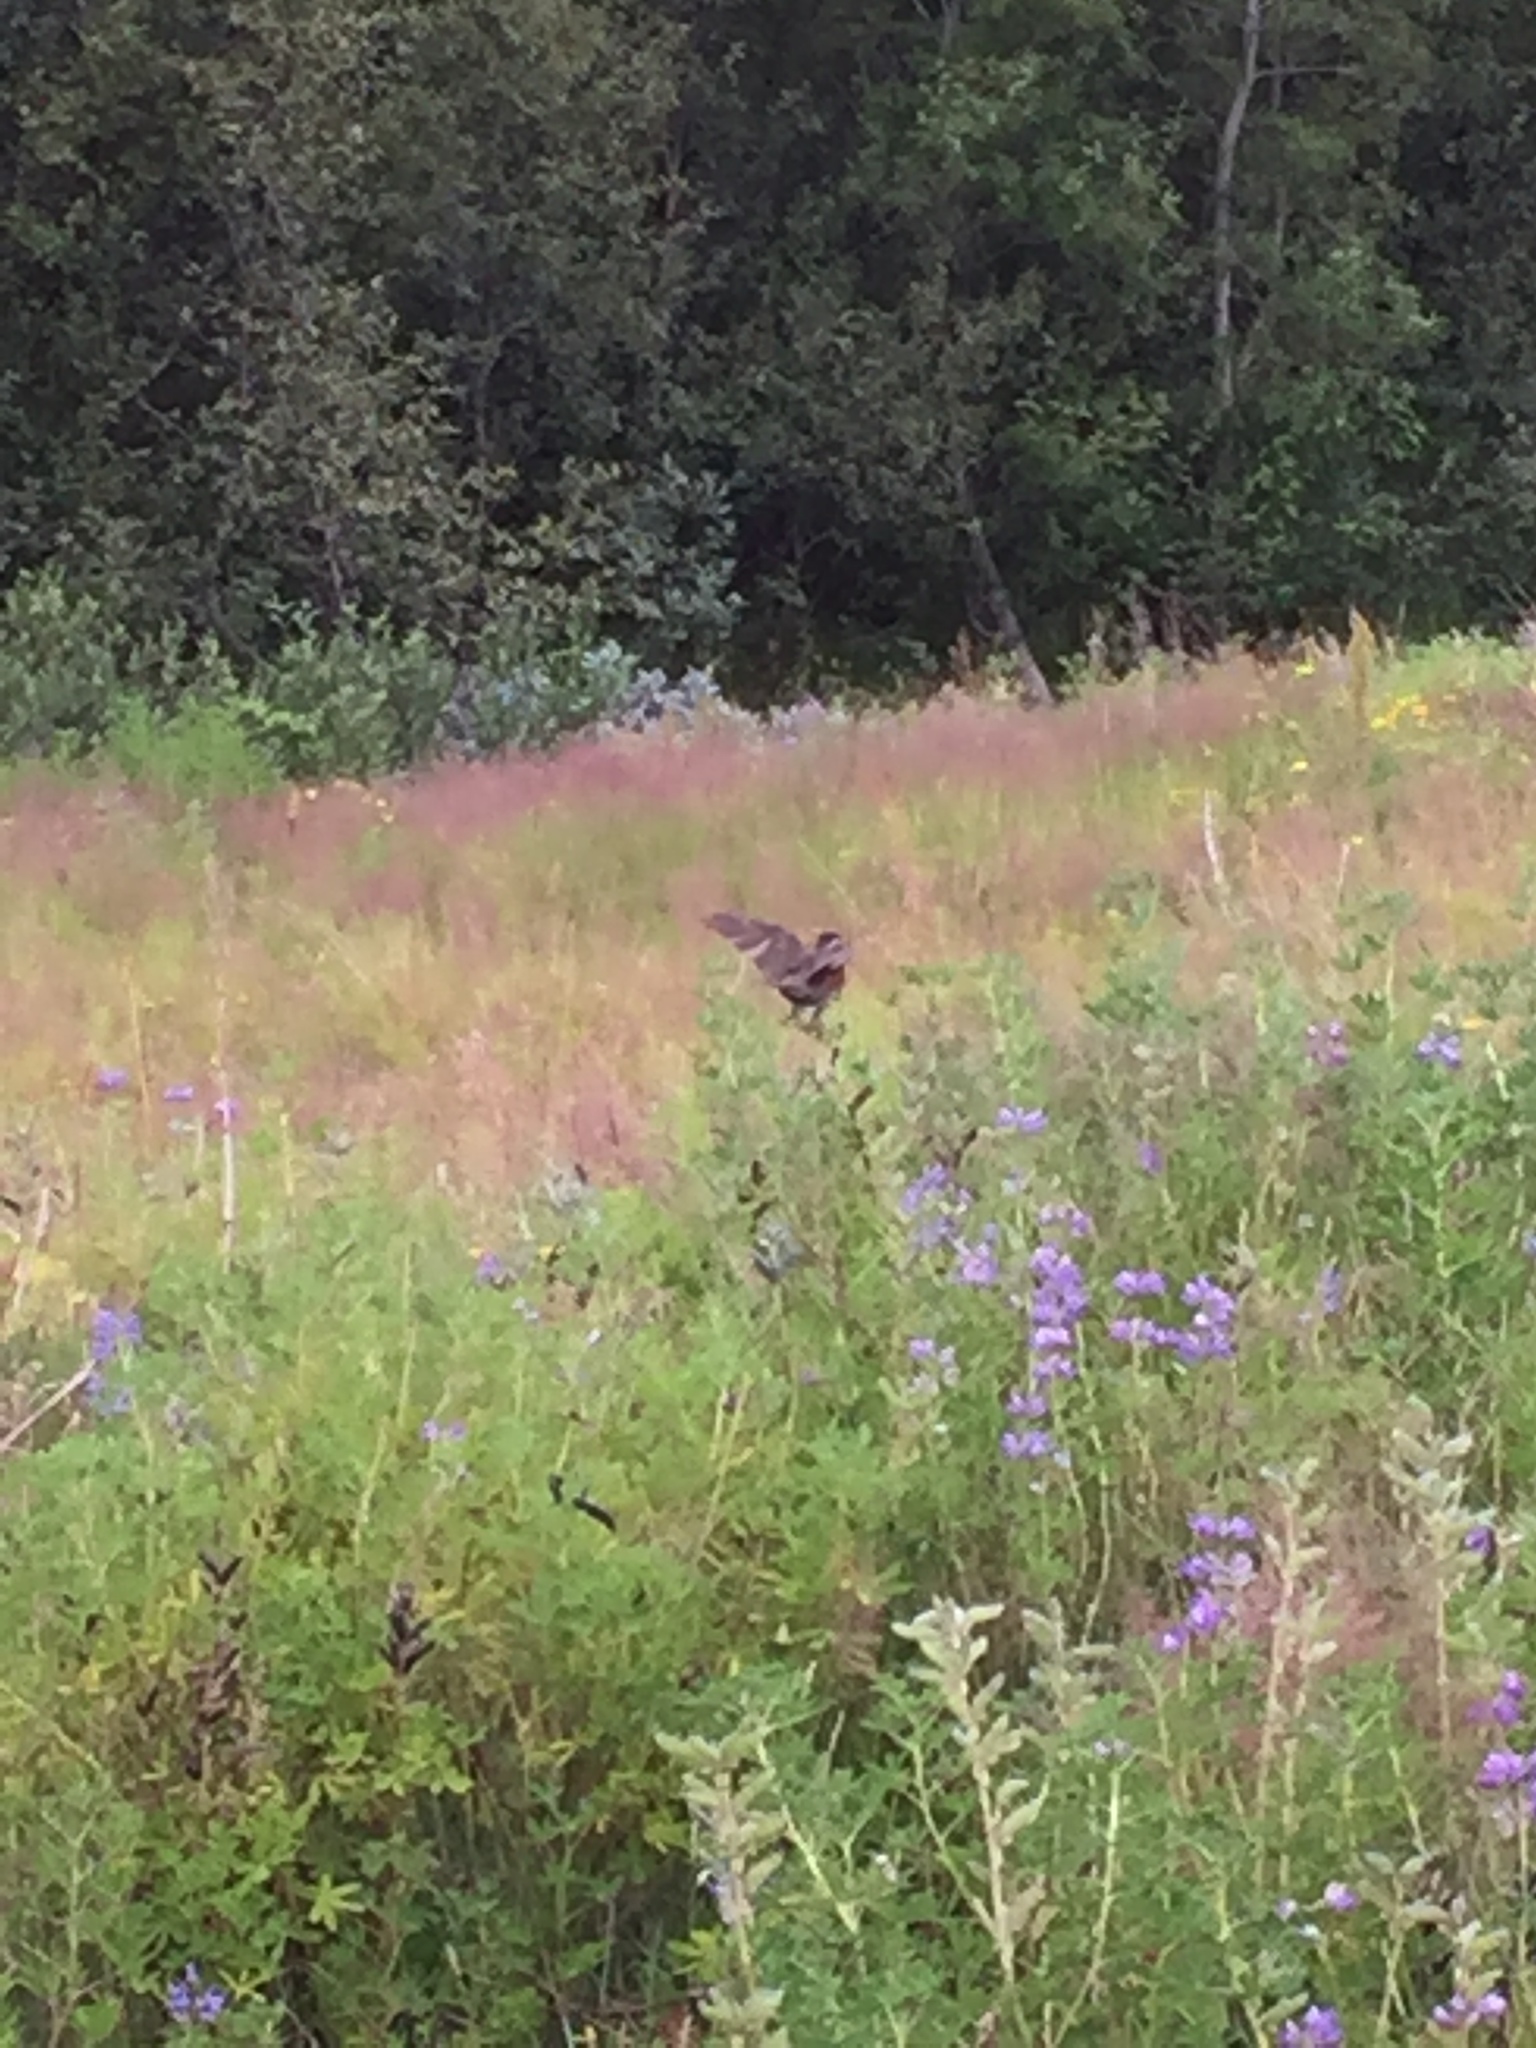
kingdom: Animalia
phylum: Chordata
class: Aves
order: Passeriformes
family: Turdidae
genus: Turdus
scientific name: Turdus iliacus
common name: Redwing
